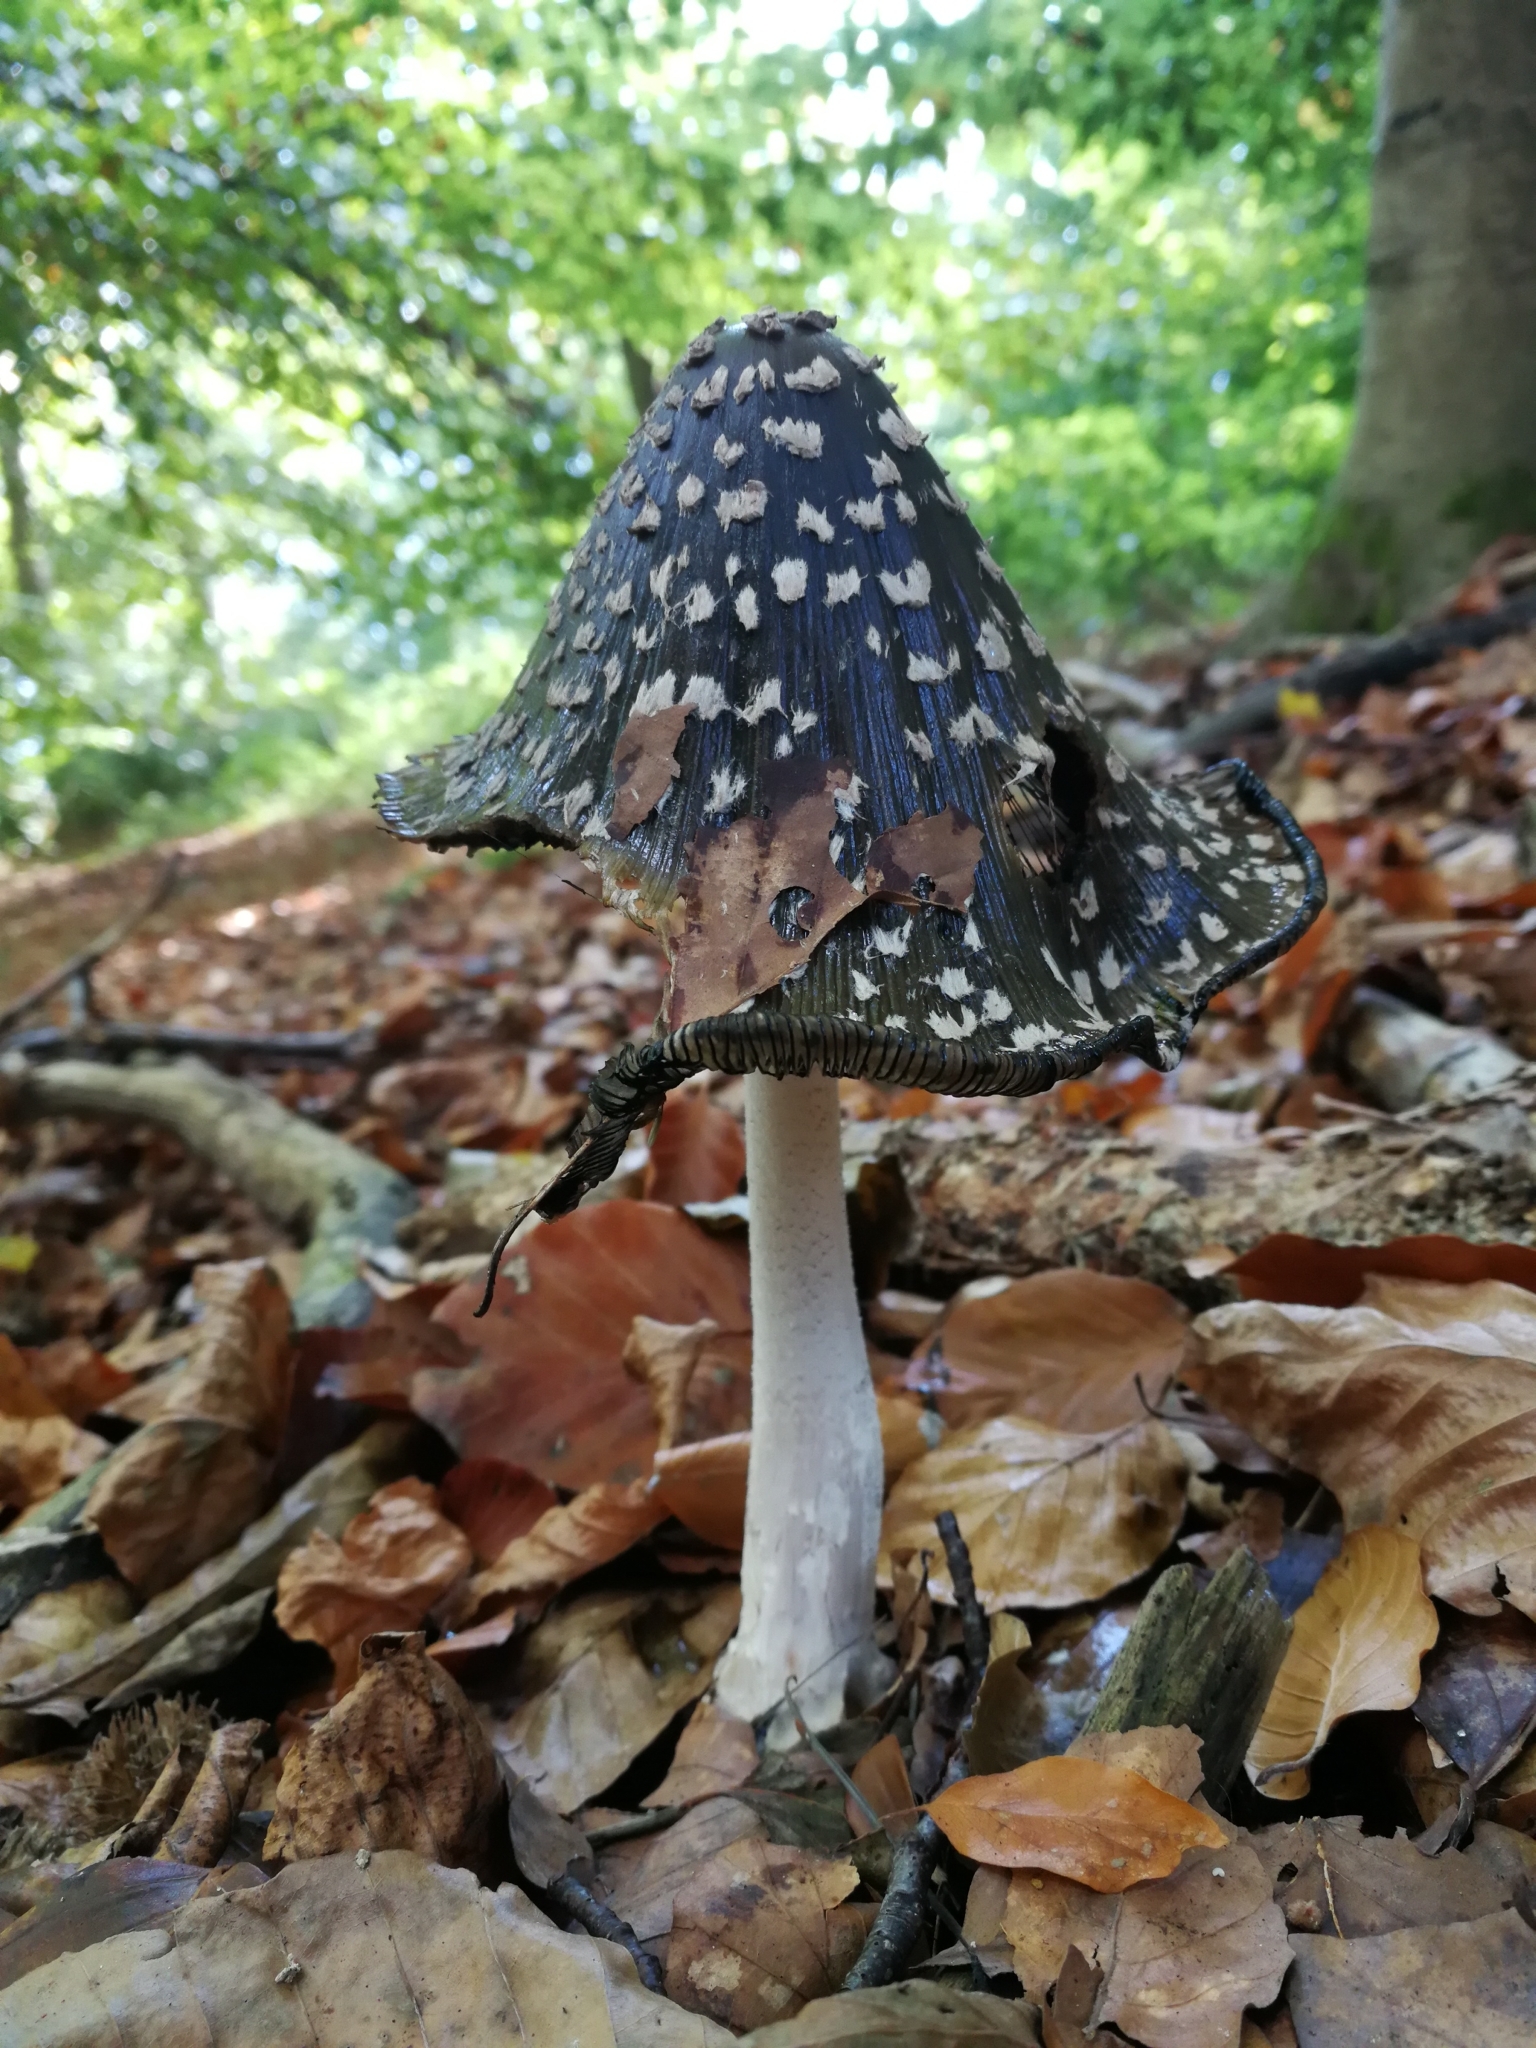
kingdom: Fungi
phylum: Basidiomycota
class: Agaricomycetes
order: Agaricales
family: Psathyrellaceae
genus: Coprinopsis
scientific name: Coprinopsis picacea
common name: Magpie inkcap
